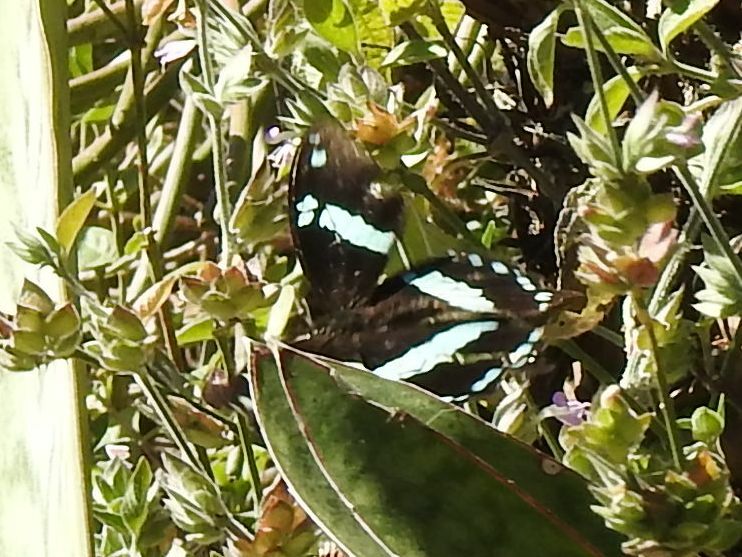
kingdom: Animalia
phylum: Arthropoda
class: Insecta
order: Lepidoptera
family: Papilionidae
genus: Papilio
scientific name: Papilio nireus
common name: Greenbanded swallowtail
